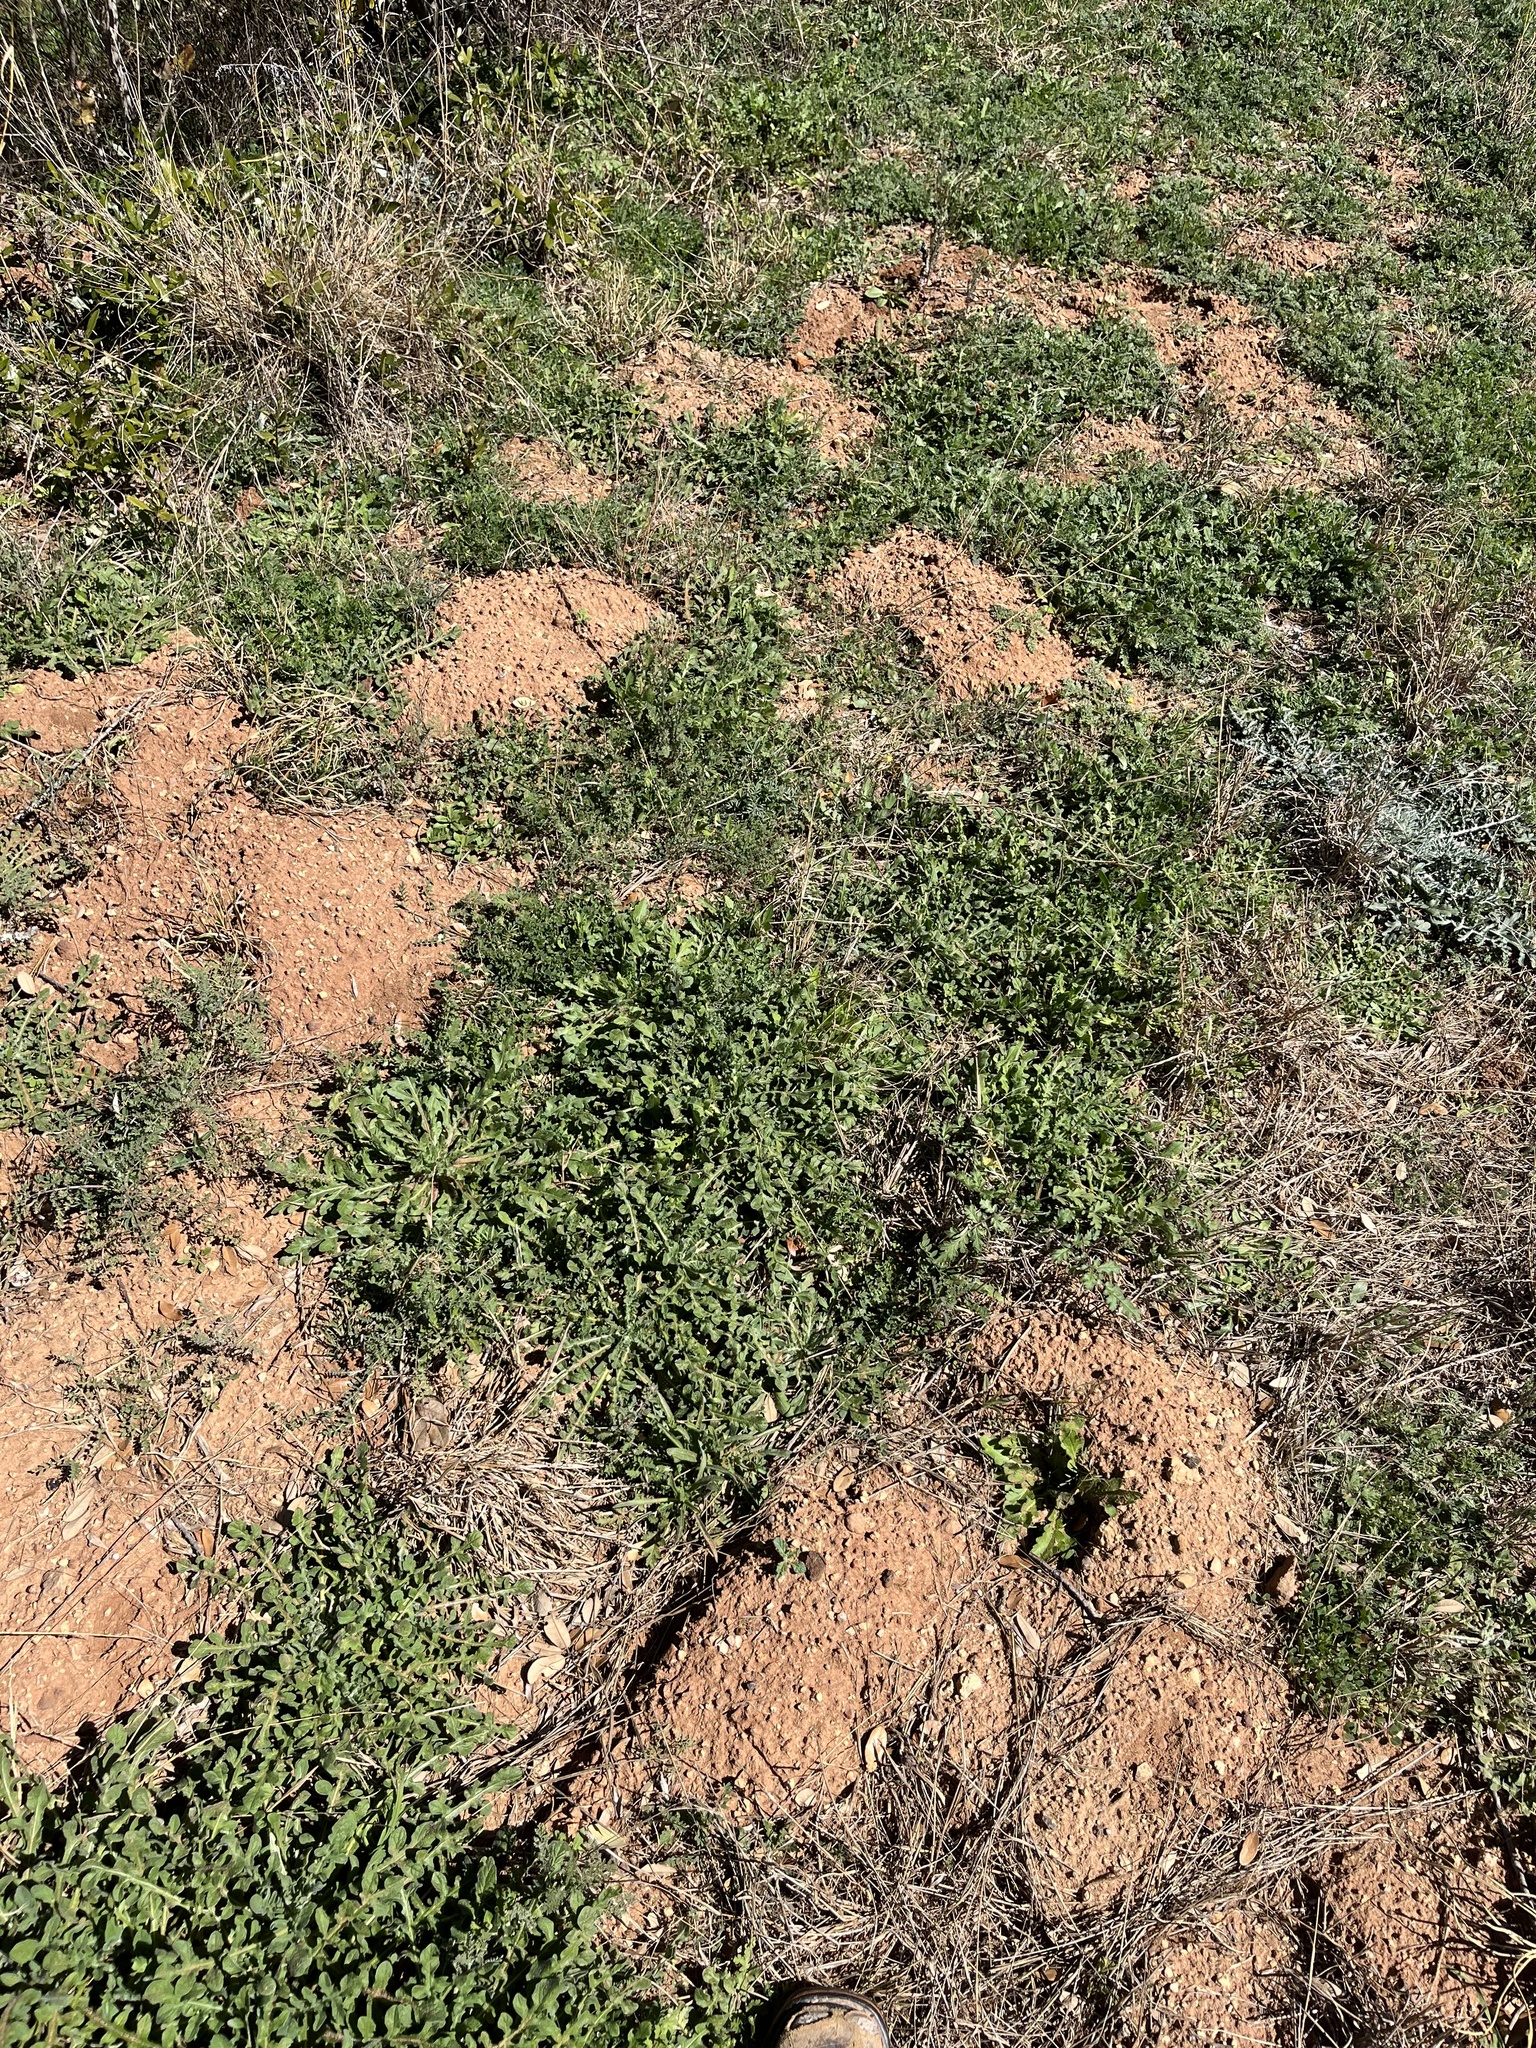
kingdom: Animalia
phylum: Chordata
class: Mammalia
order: Rodentia
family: Geomyidae
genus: Geomys
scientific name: Geomys texensis
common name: Llano pocket gopher
